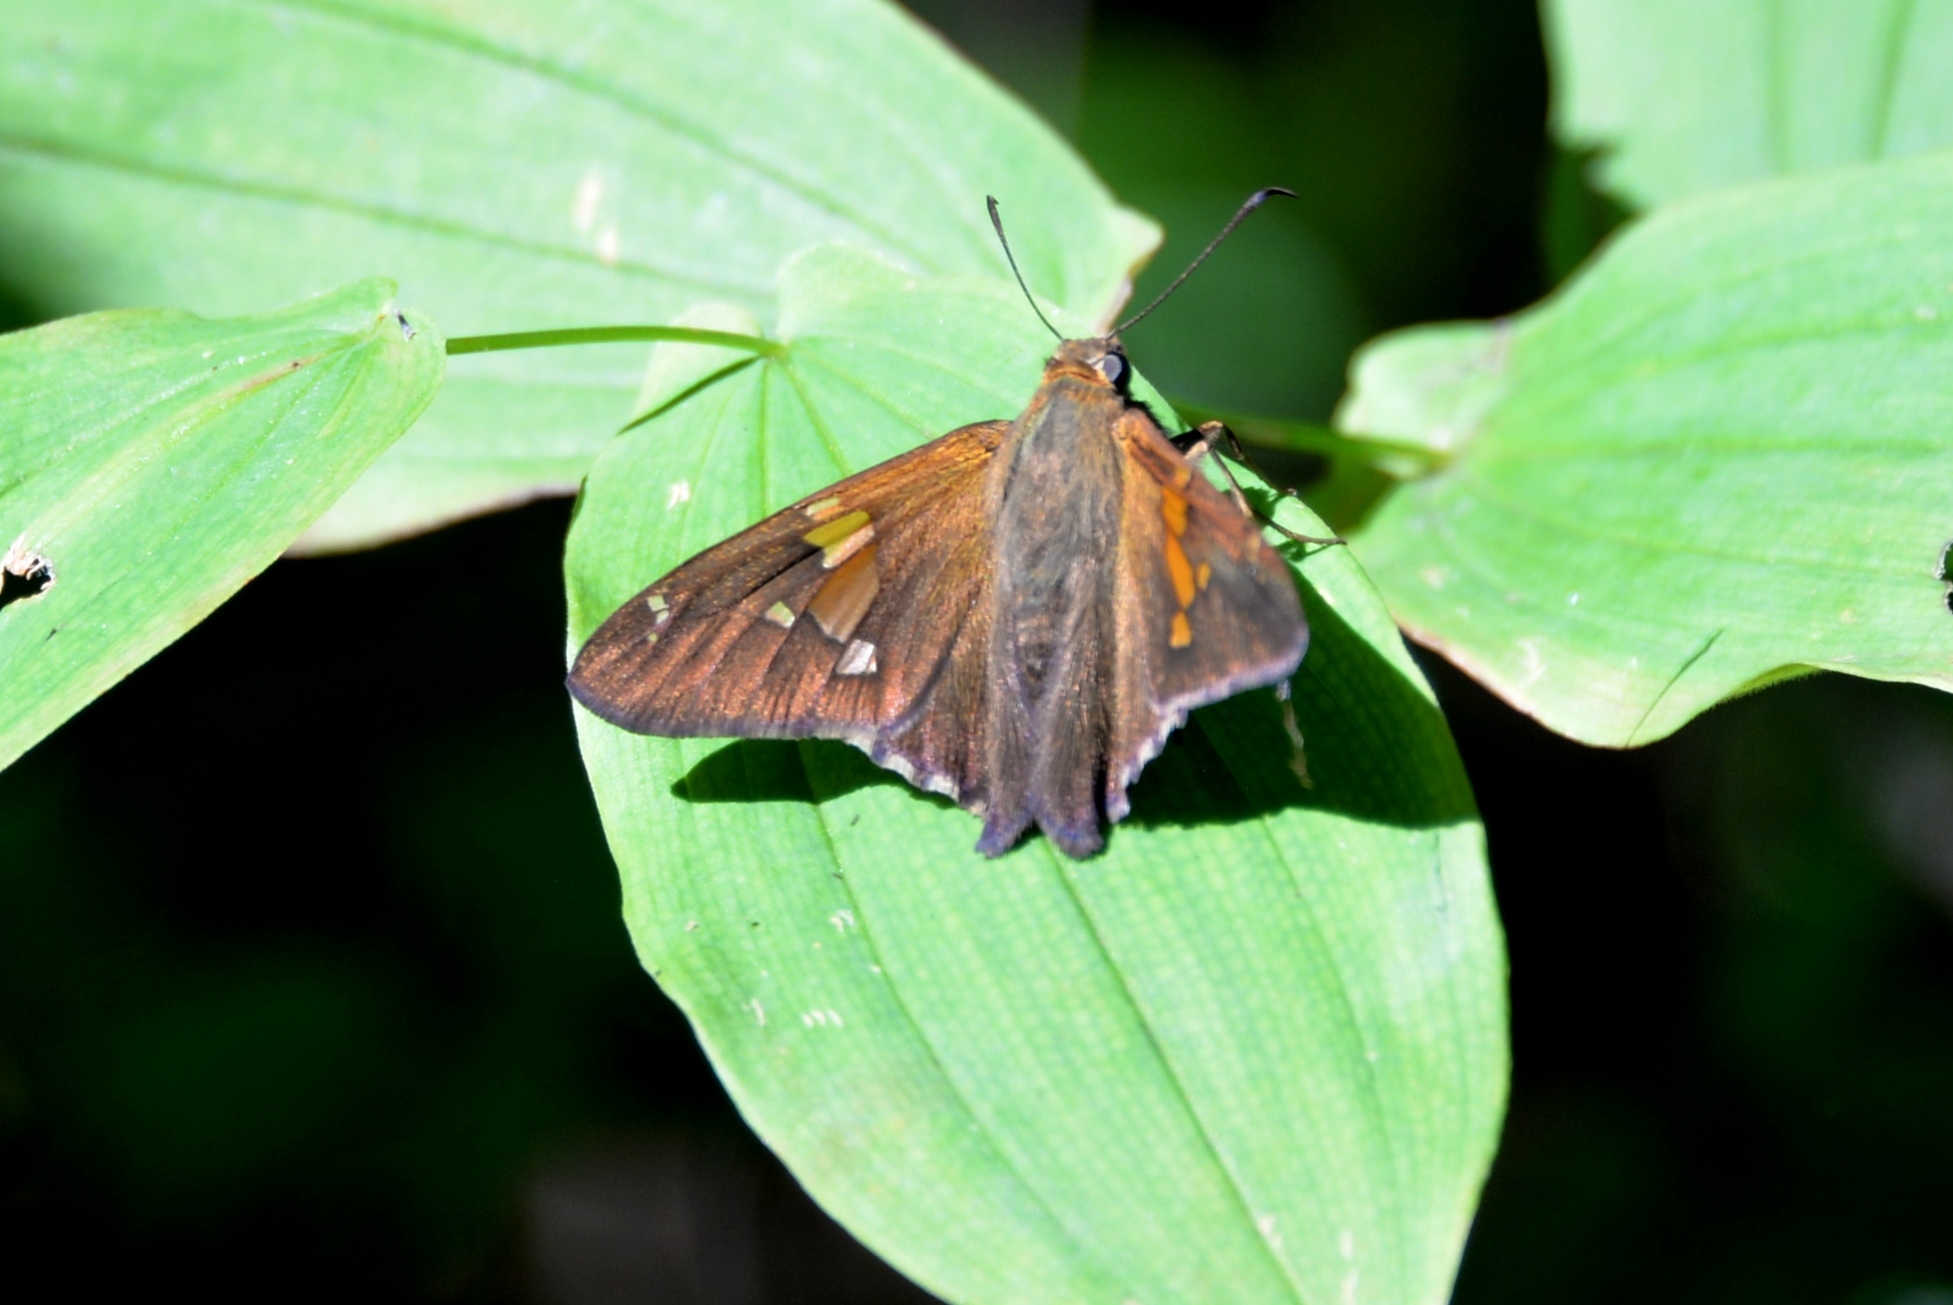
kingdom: Animalia
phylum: Arthropoda
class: Insecta
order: Lepidoptera
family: Hesperiidae
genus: Epargyreus
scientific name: Epargyreus clarus
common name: Silver-spotted skipper
